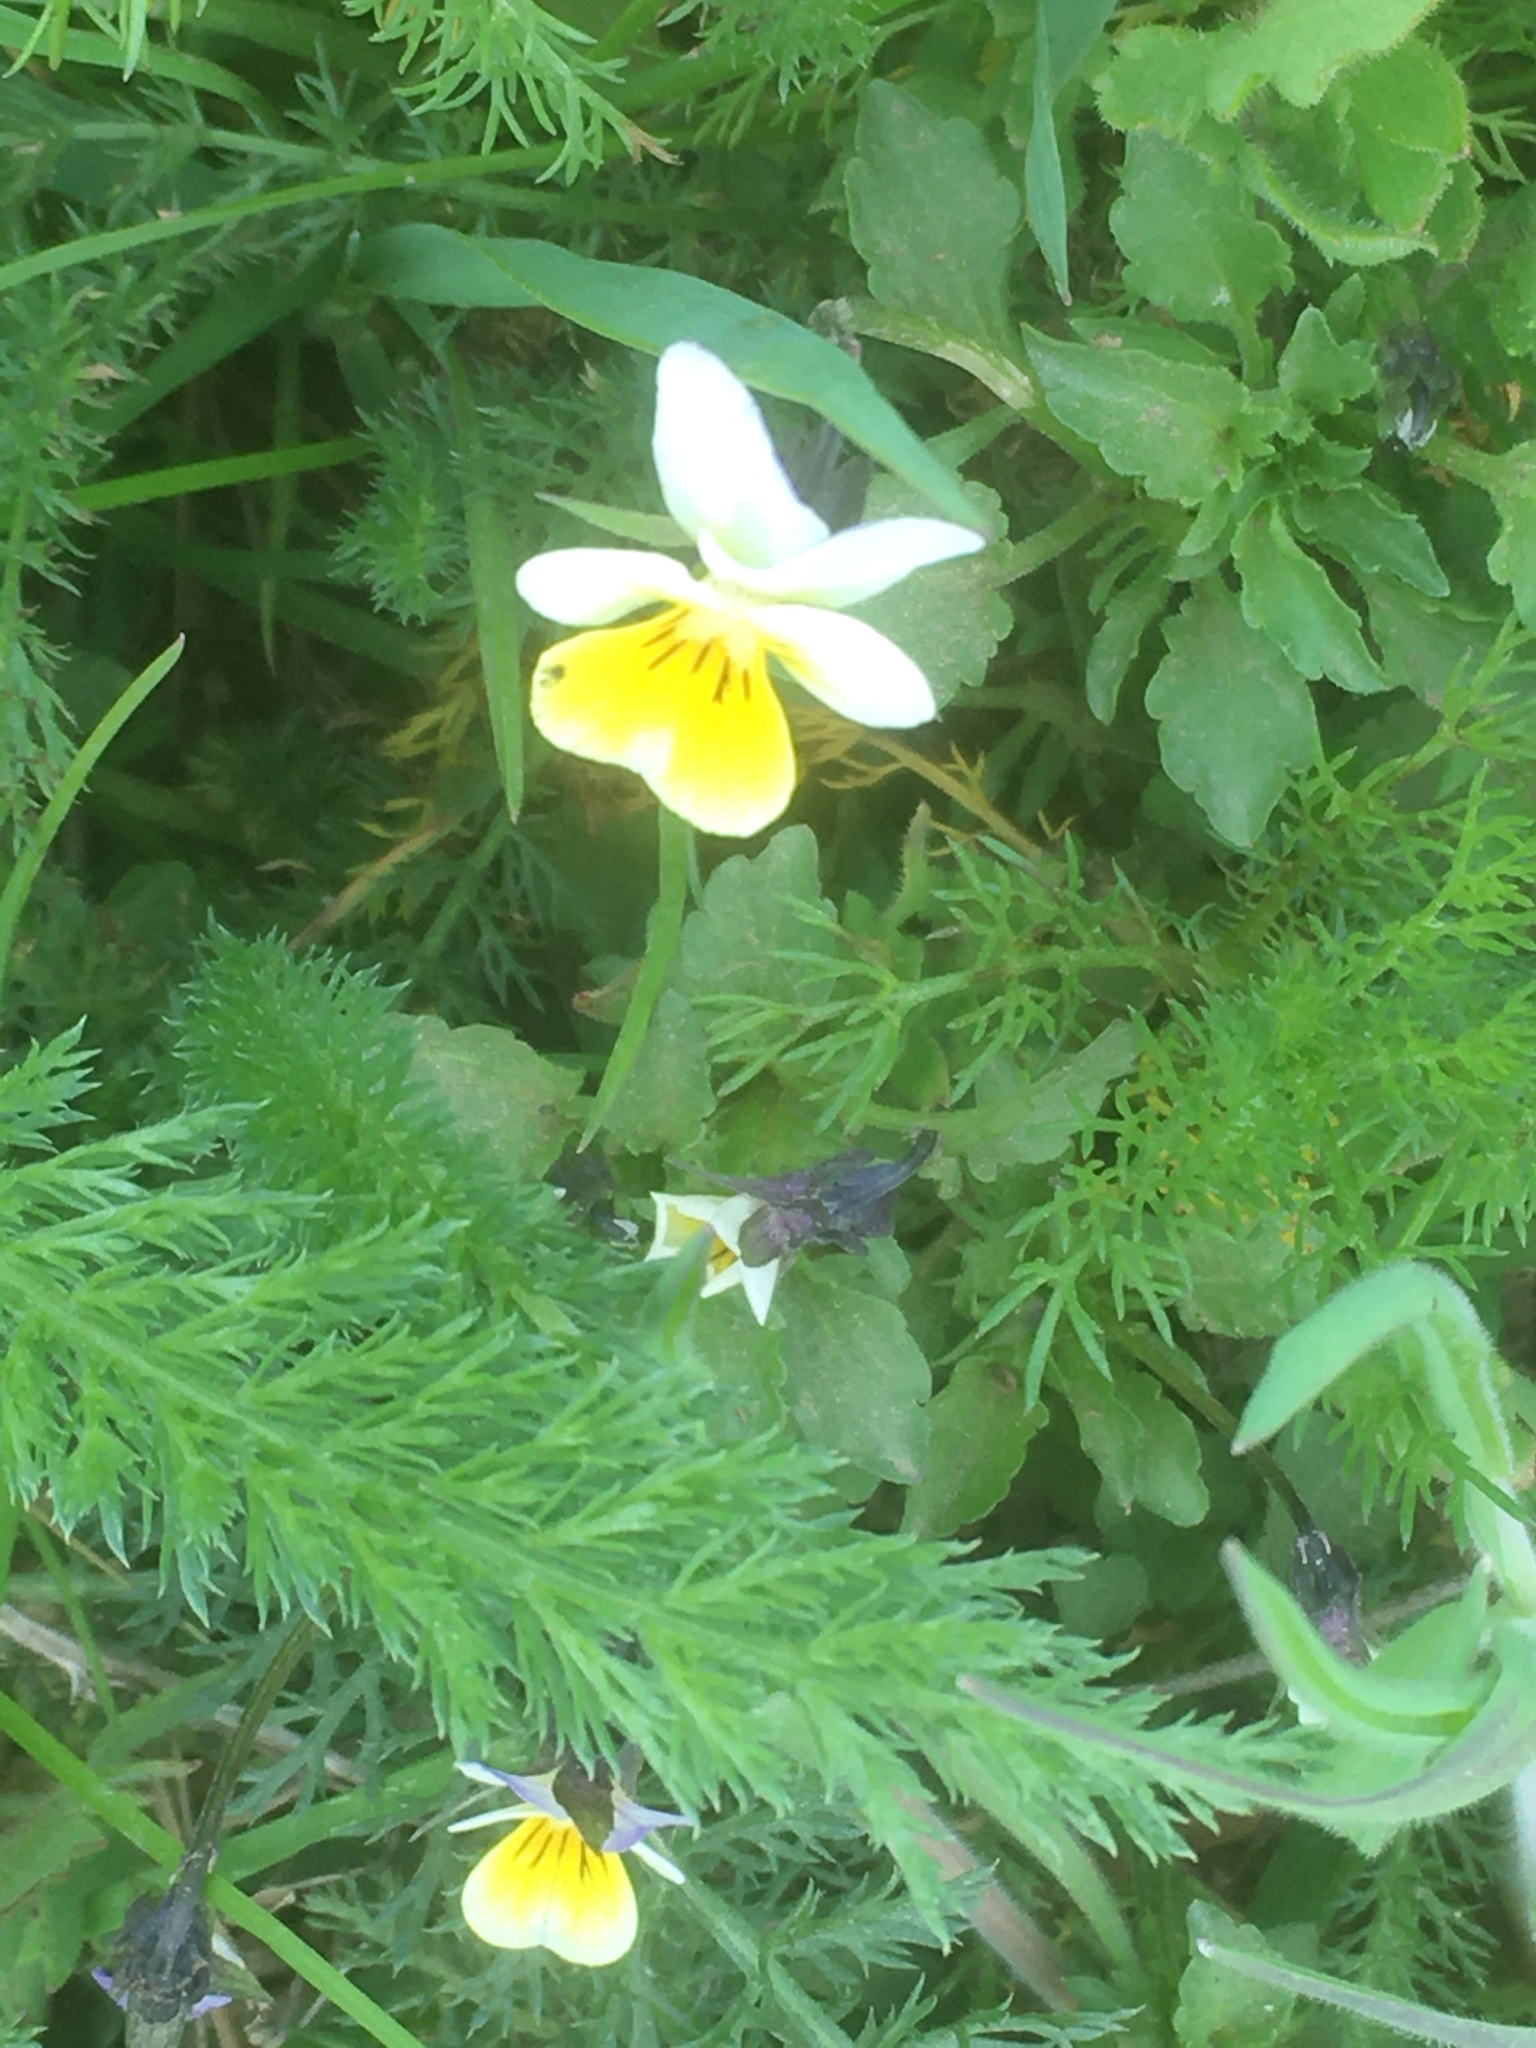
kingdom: Plantae
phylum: Tracheophyta
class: Magnoliopsida
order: Malpighiales
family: Violaceae
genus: Viola
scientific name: Viola arvensis
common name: Field pansy
